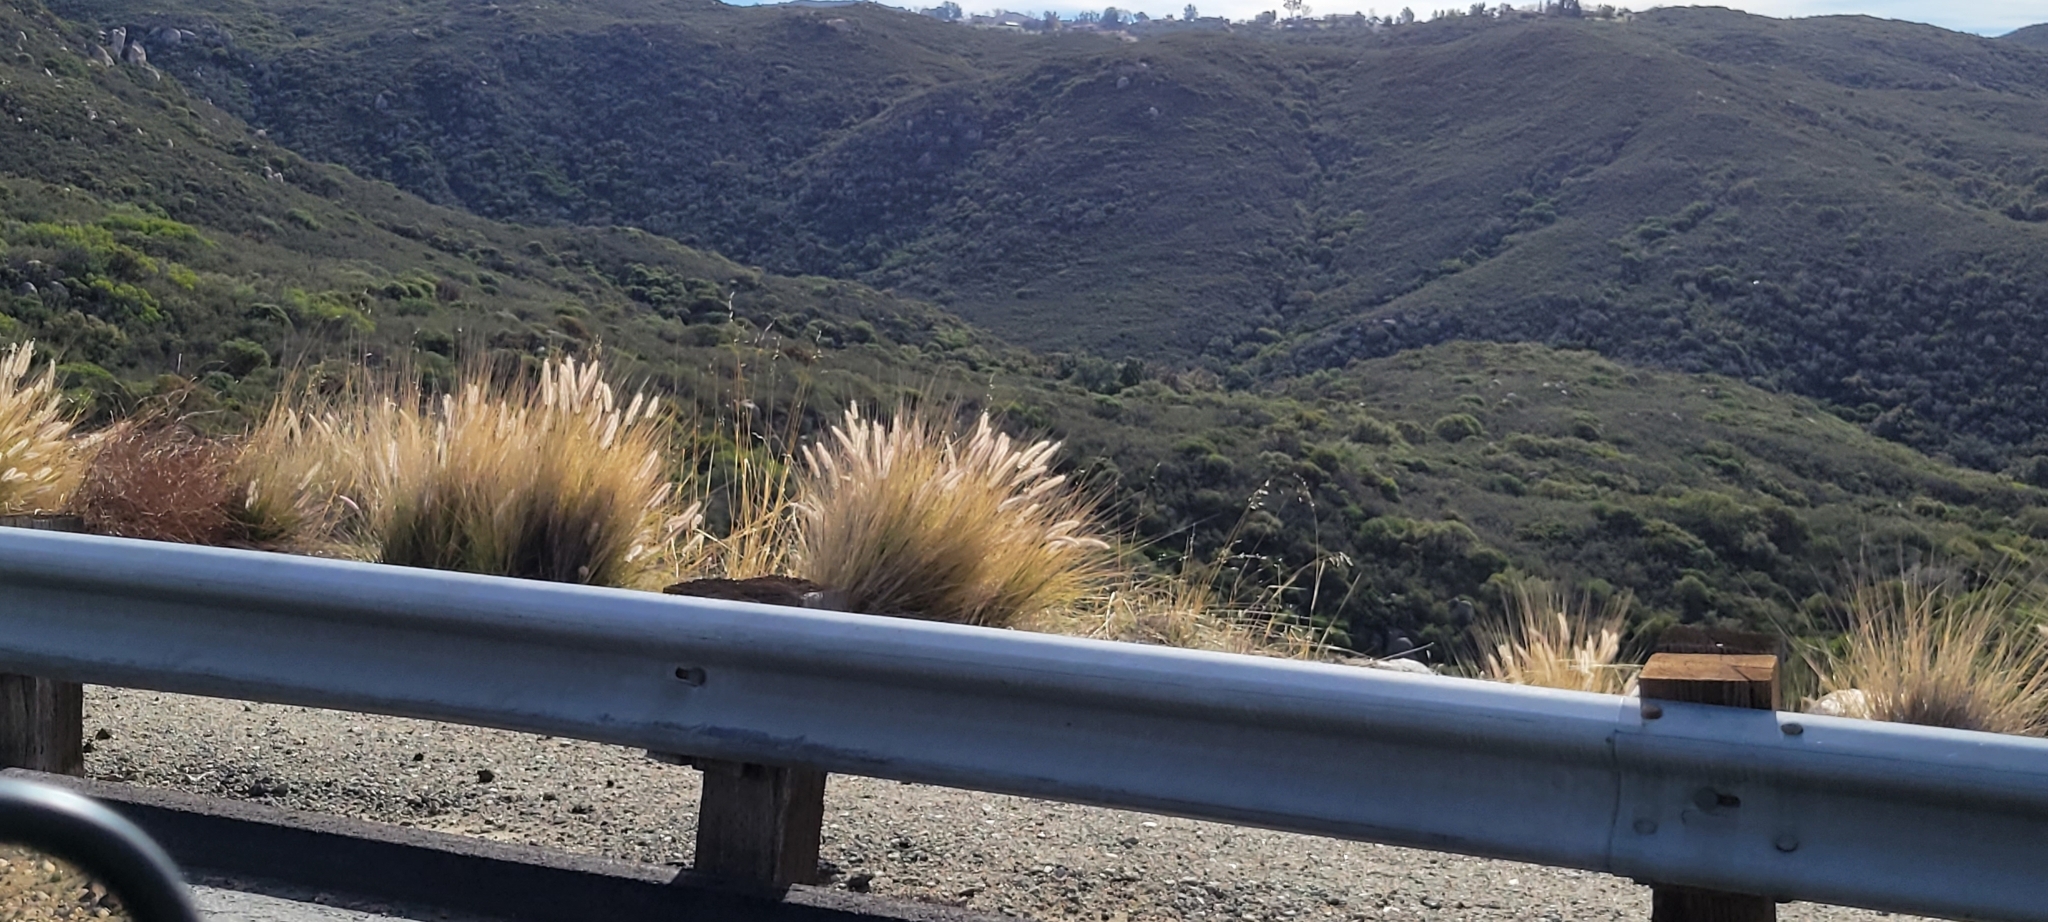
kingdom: Plantae
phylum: Tracheophyta
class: Liliopsida
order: Poales
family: Poaceae
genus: Cenchrus
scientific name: Cenchrus setaceus
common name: Crimson fountaingrass
